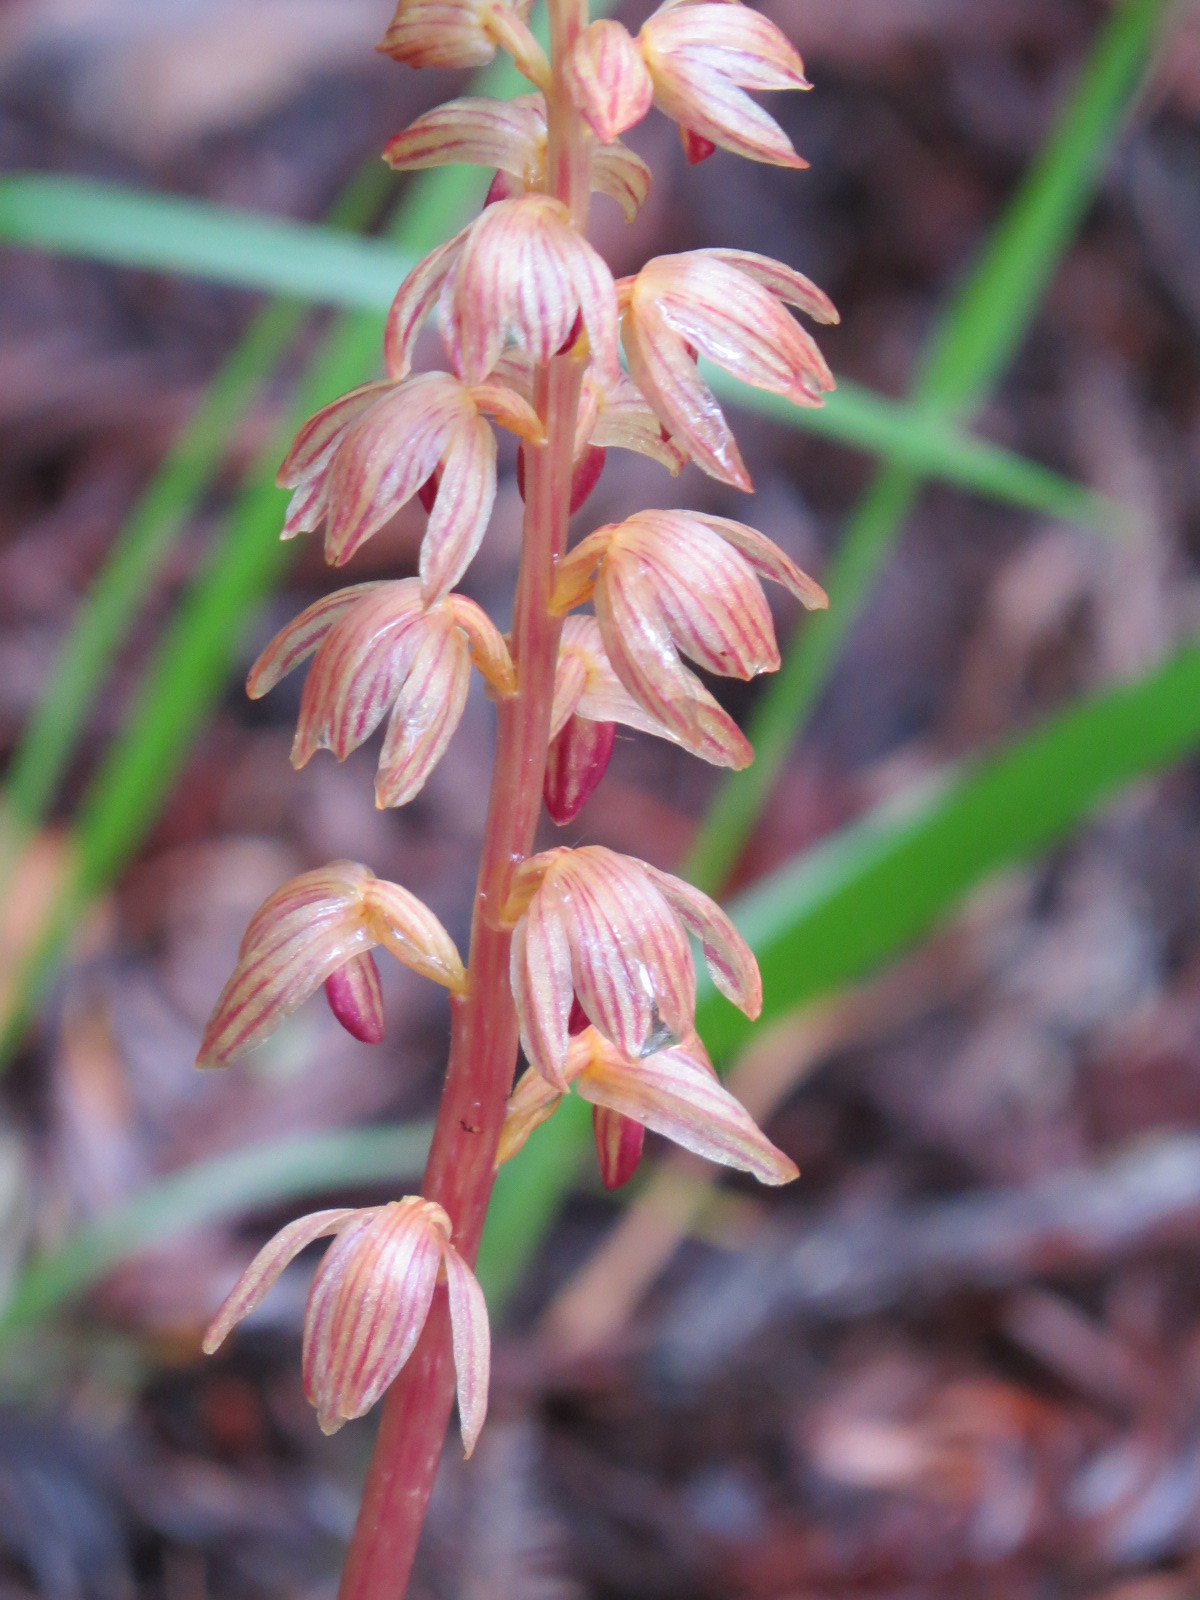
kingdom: Plantae
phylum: Tracheophyta
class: Liliopsida
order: Asparagales
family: Orchidaceae
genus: Corallorhiza
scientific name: Corallorhiza striata
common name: Hooded coralroot
